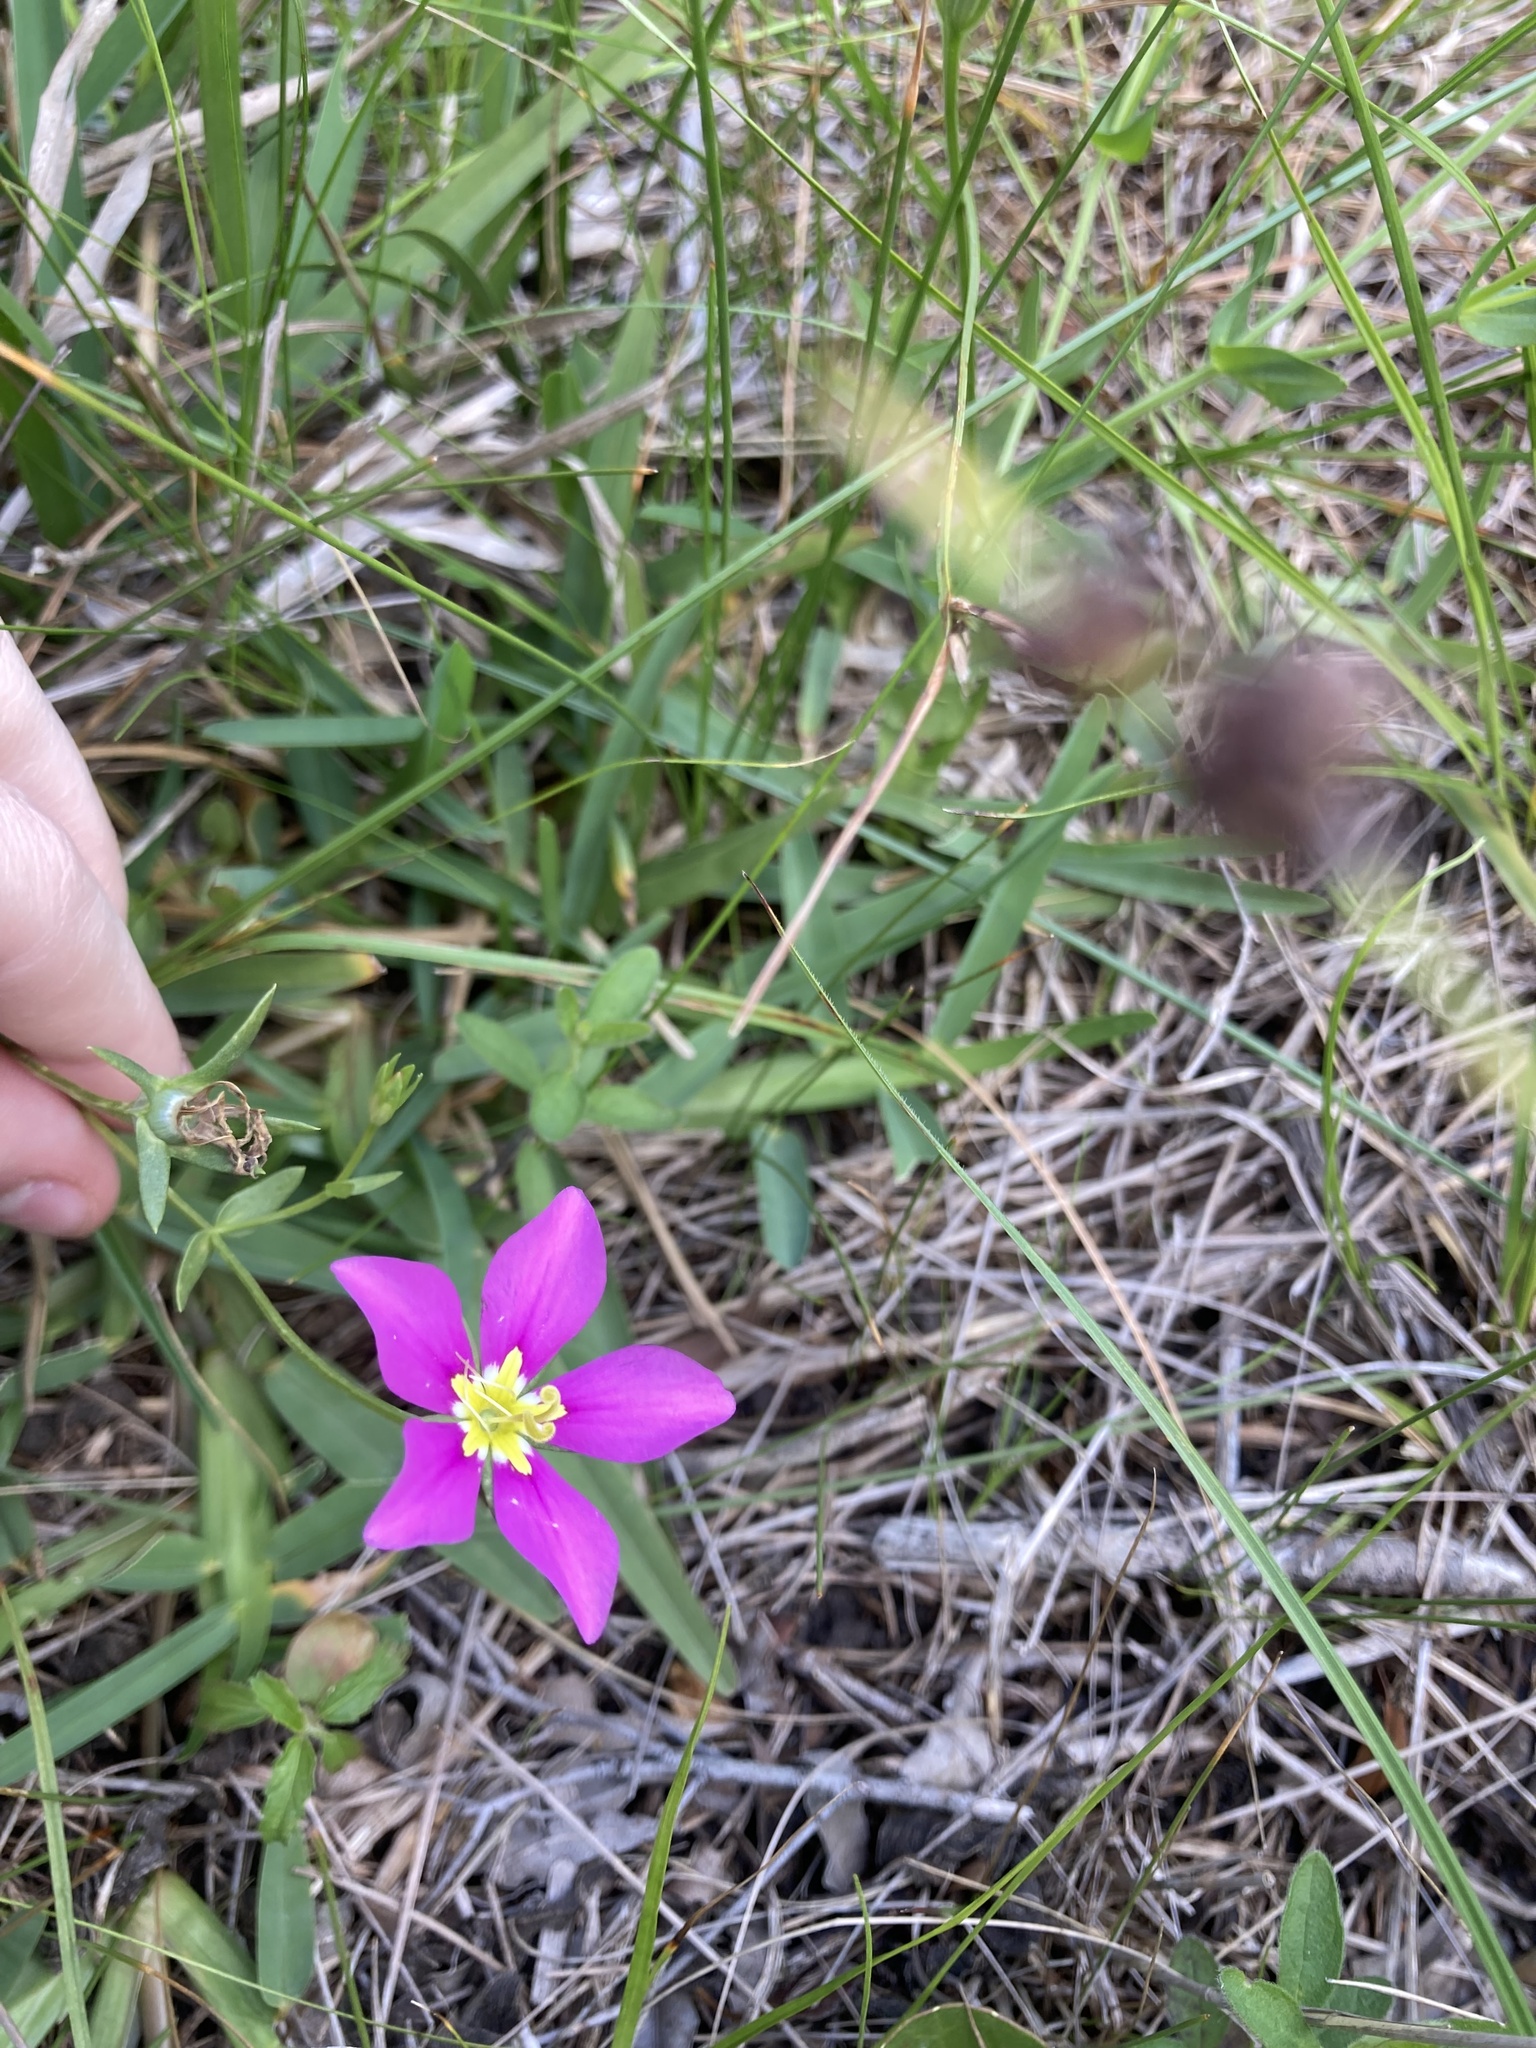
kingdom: Plantae
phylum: Tracheophyta
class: Magnoliopsida
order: Gentianales
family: Gentianaceae
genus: Sabatia
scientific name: Sabatia campestris
